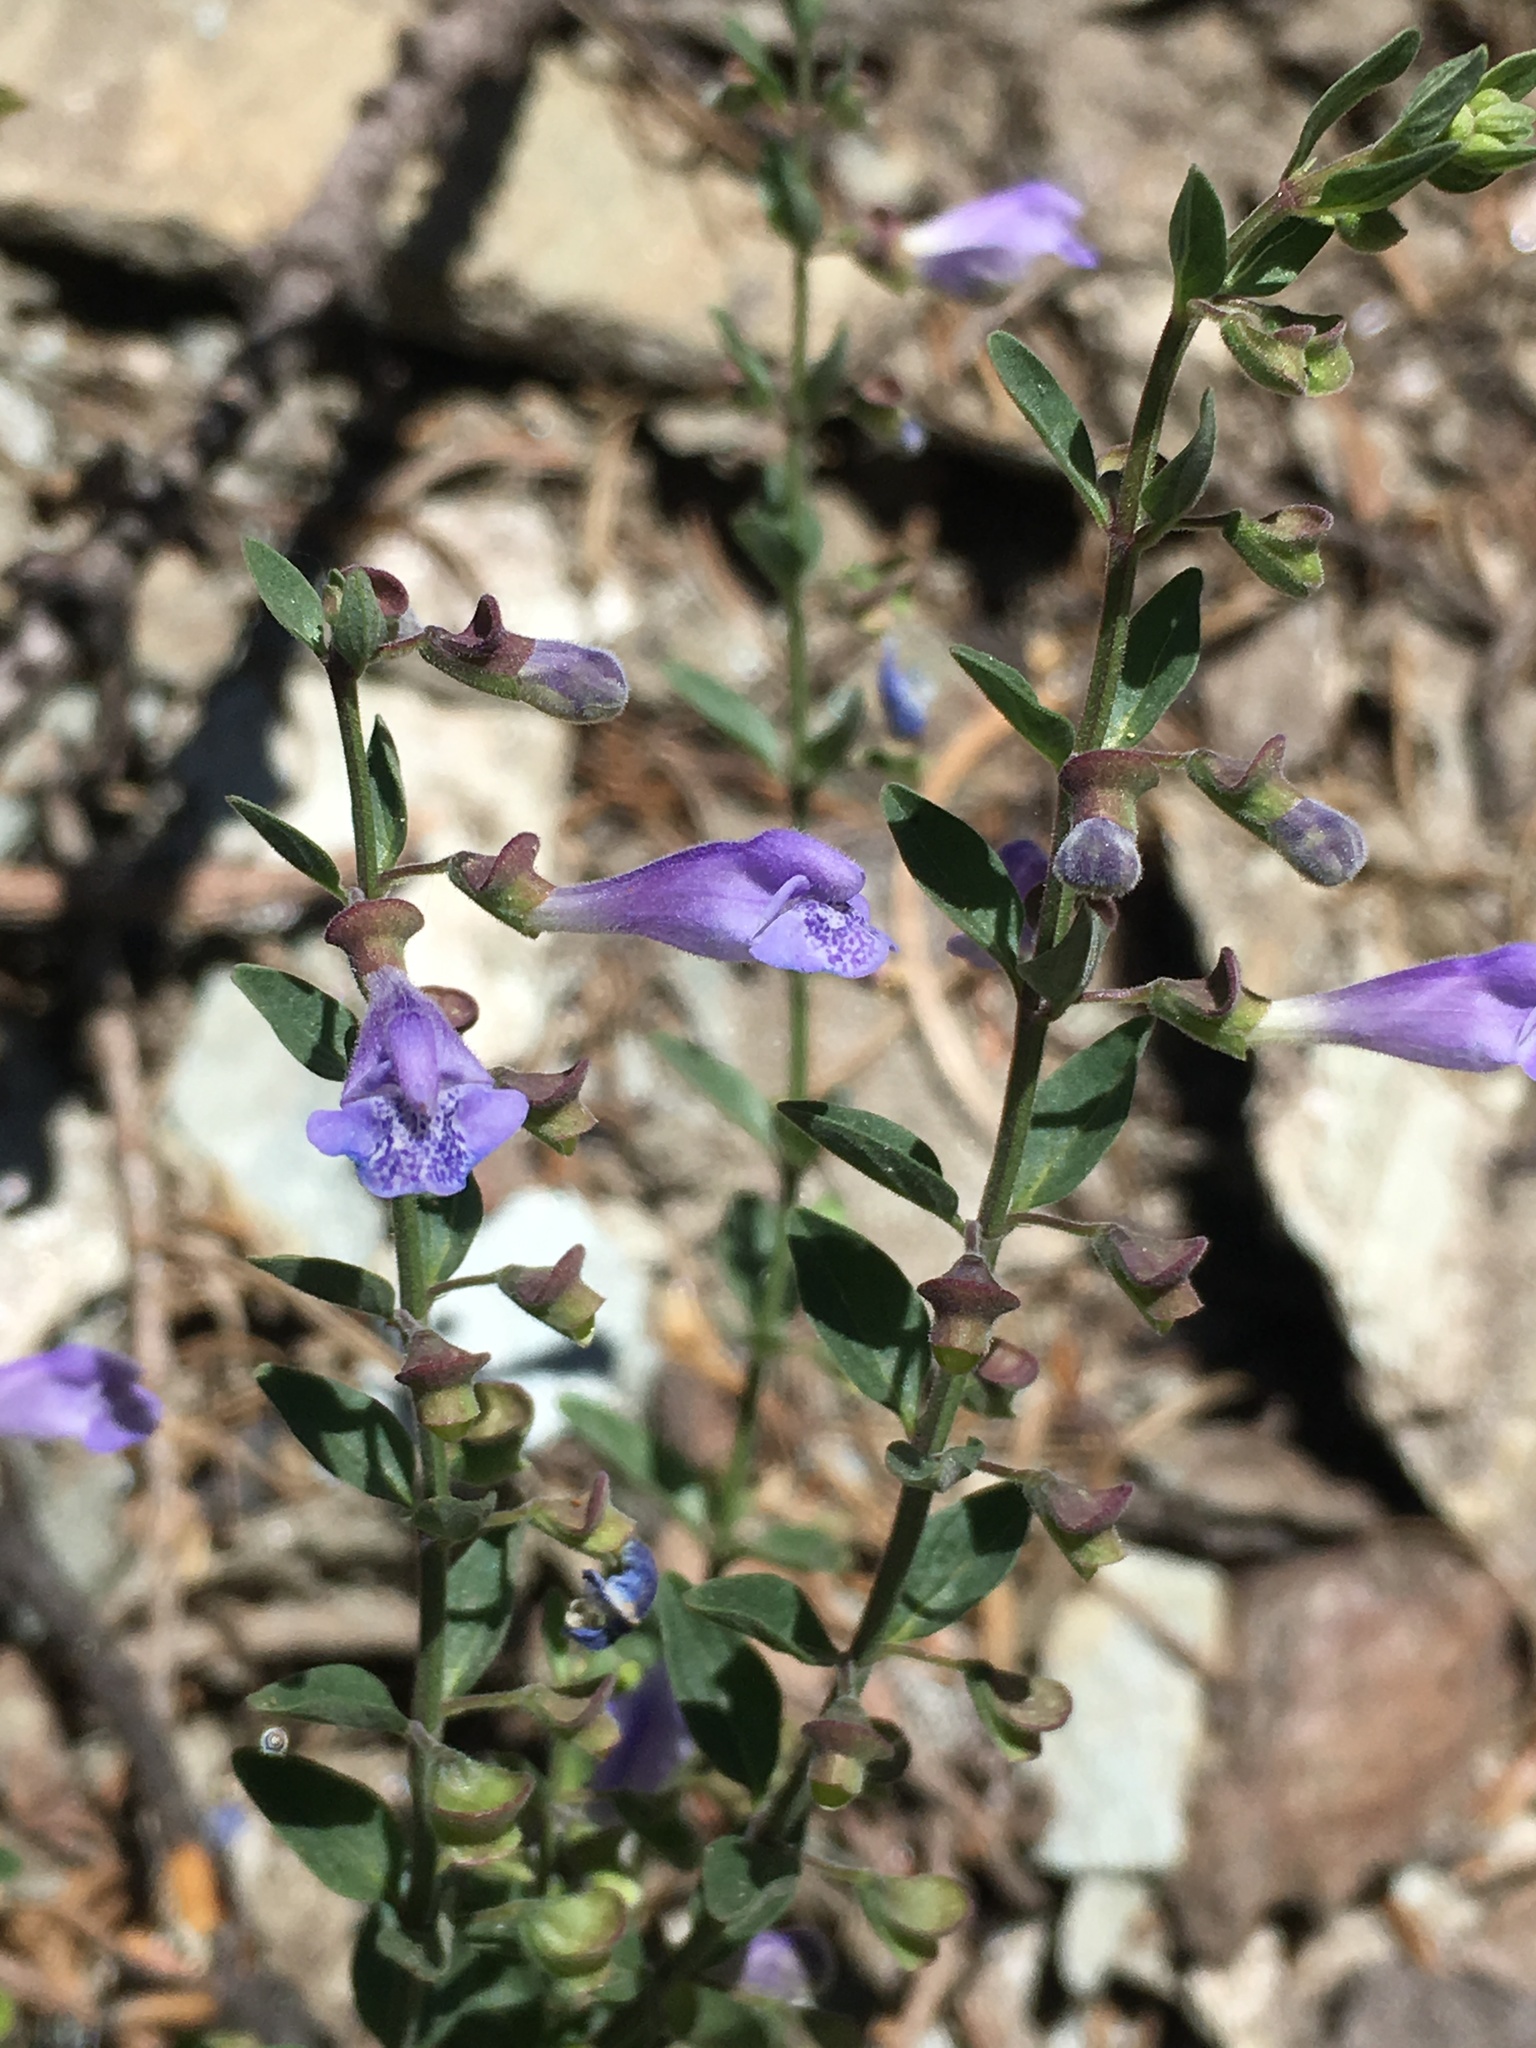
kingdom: Plantae
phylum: Tracheophyta
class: Magnoliopsida
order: Lamiales
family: Lamiaceae
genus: Scutellaria
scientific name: Scutellaria antirrhinoides
